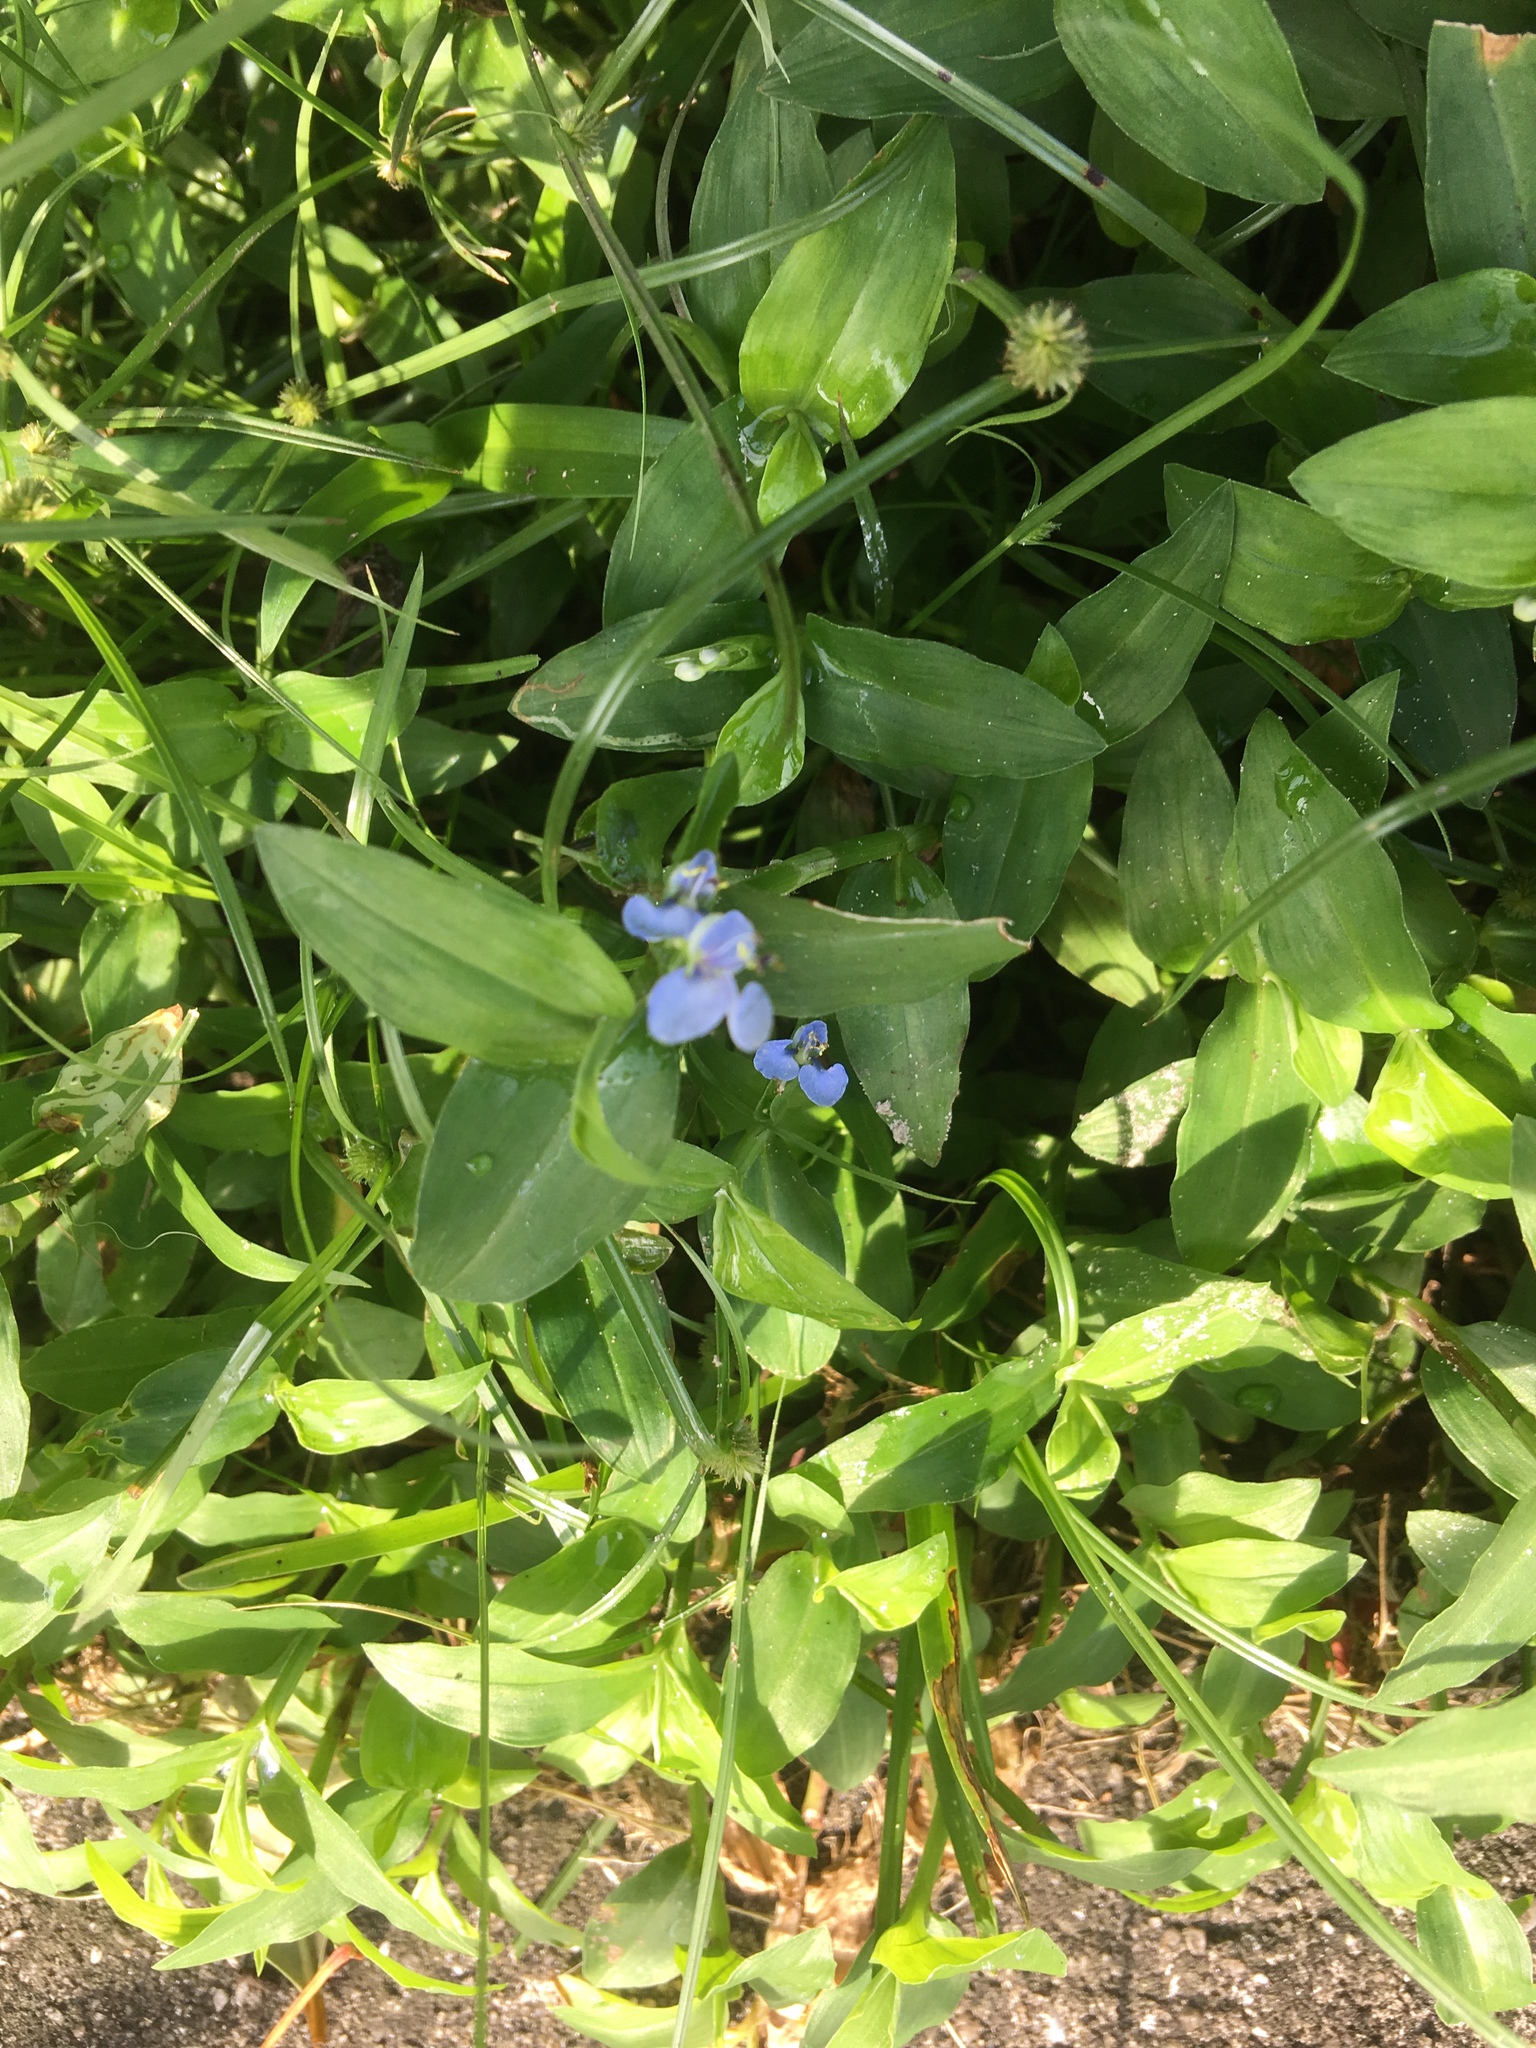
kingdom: Plantae
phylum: Tracheophyta
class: Liliopsida
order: Commelinales
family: Commelinaceae
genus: Commelina
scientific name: Commelina diffusa
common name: Climbing dayflower
